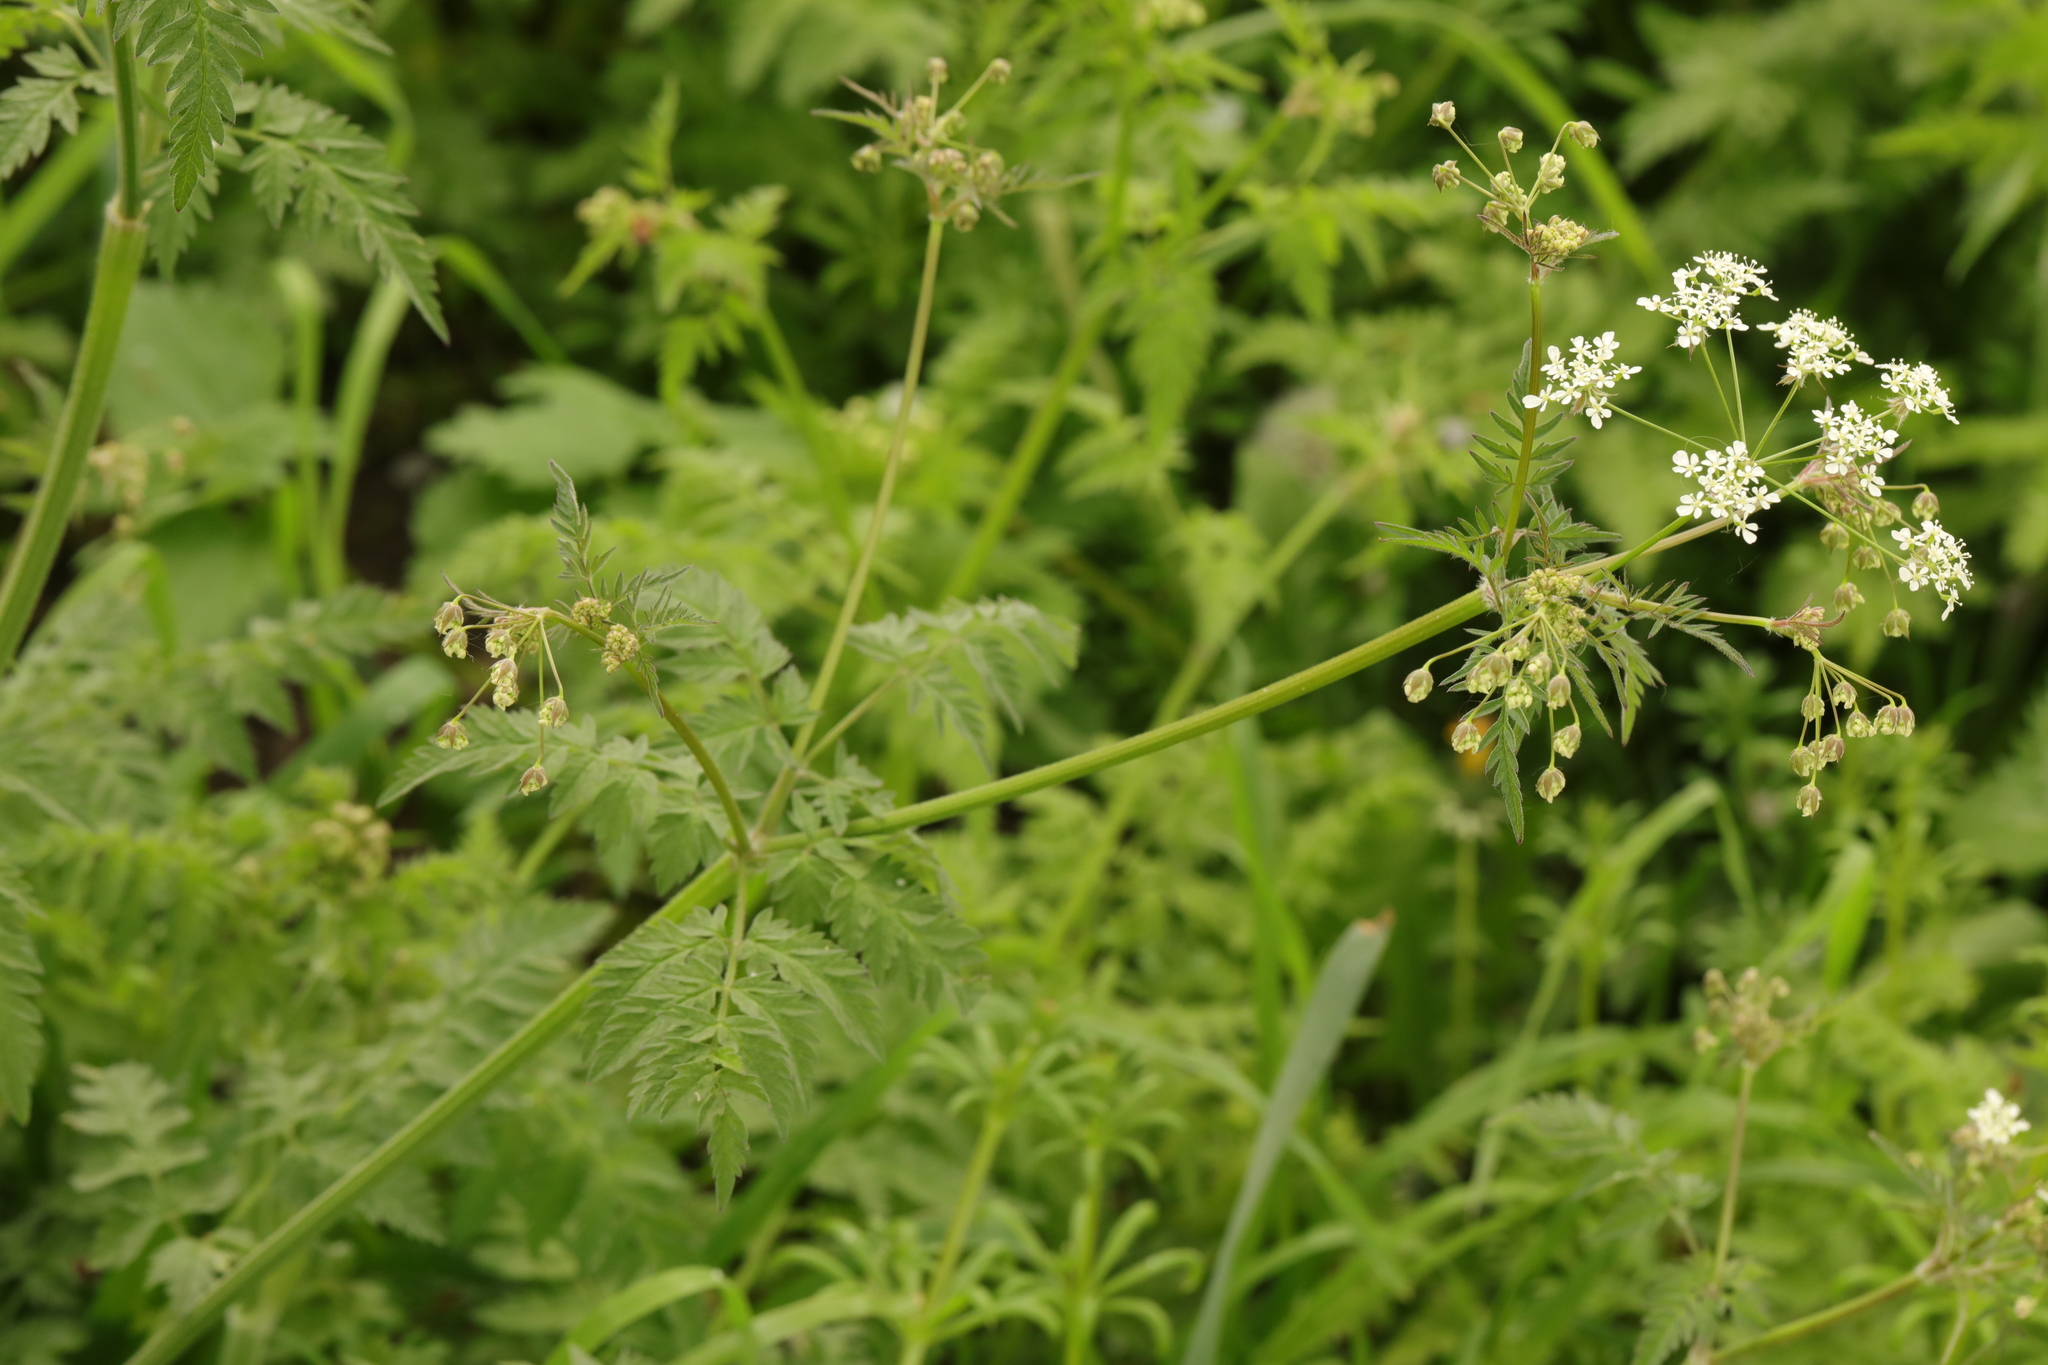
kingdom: Plantae
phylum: Tracheophyta
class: Magnoliopsida
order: Apiales
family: Apiaceae
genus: Anthriscus
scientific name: Anthriscus sylvestris
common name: Cow parsley
